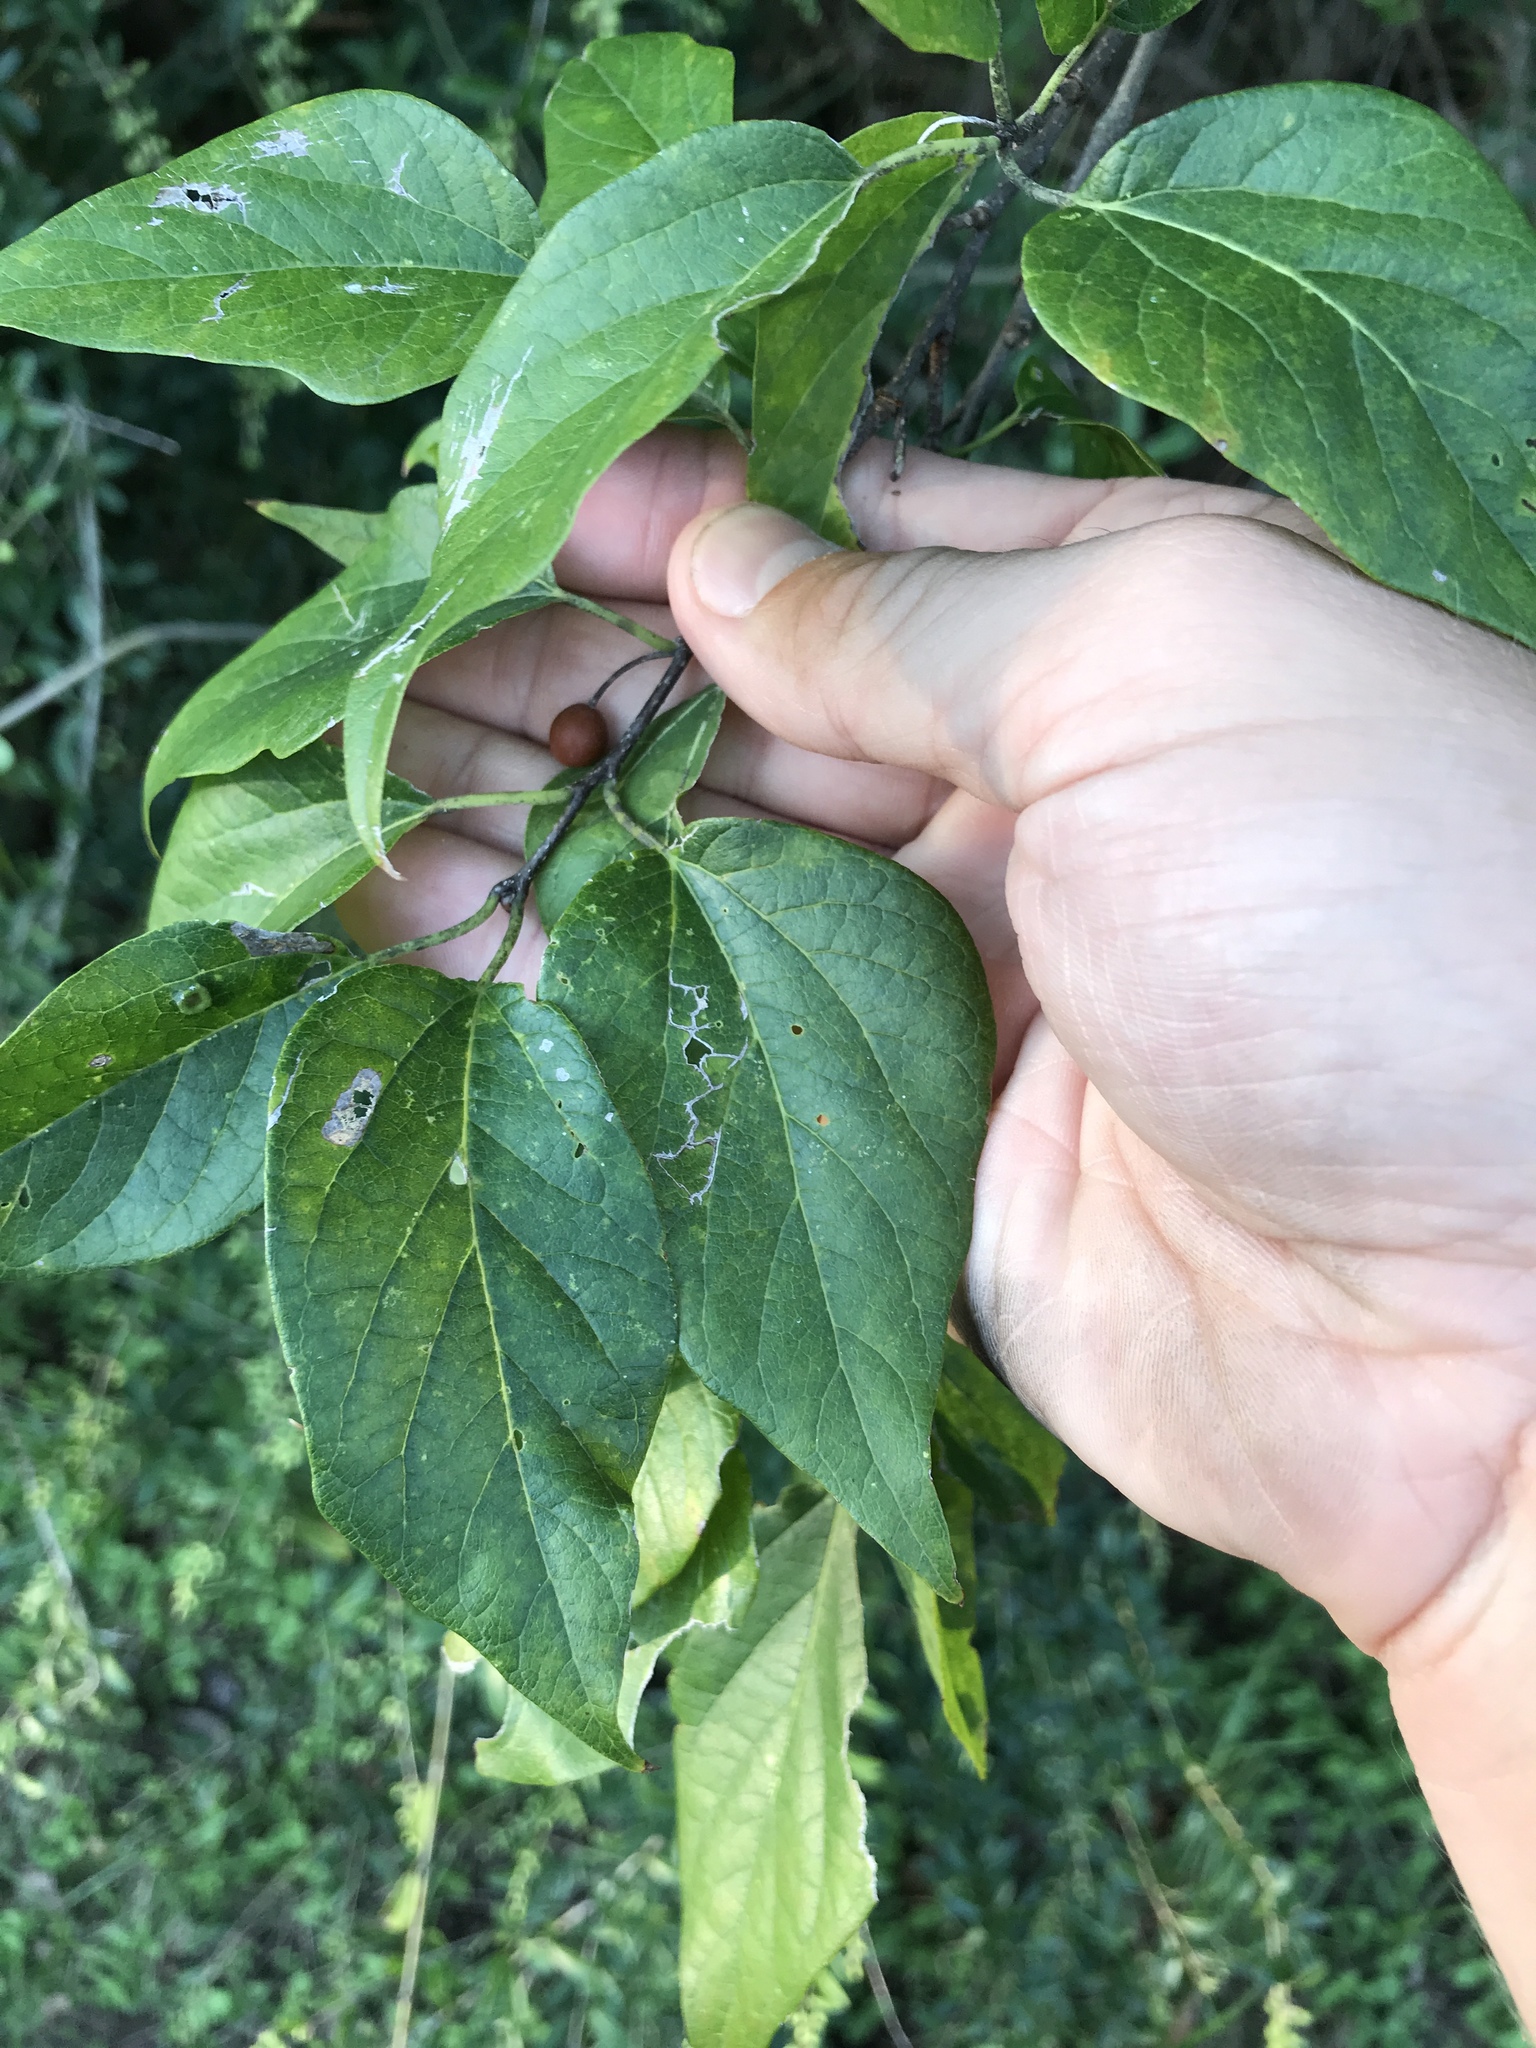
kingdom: Plantae
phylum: Tracheophyta
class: Magnoliopsida
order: Rosales
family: Cannabaceae
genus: Celtis
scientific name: Celtis laevigata
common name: Sugarberry
